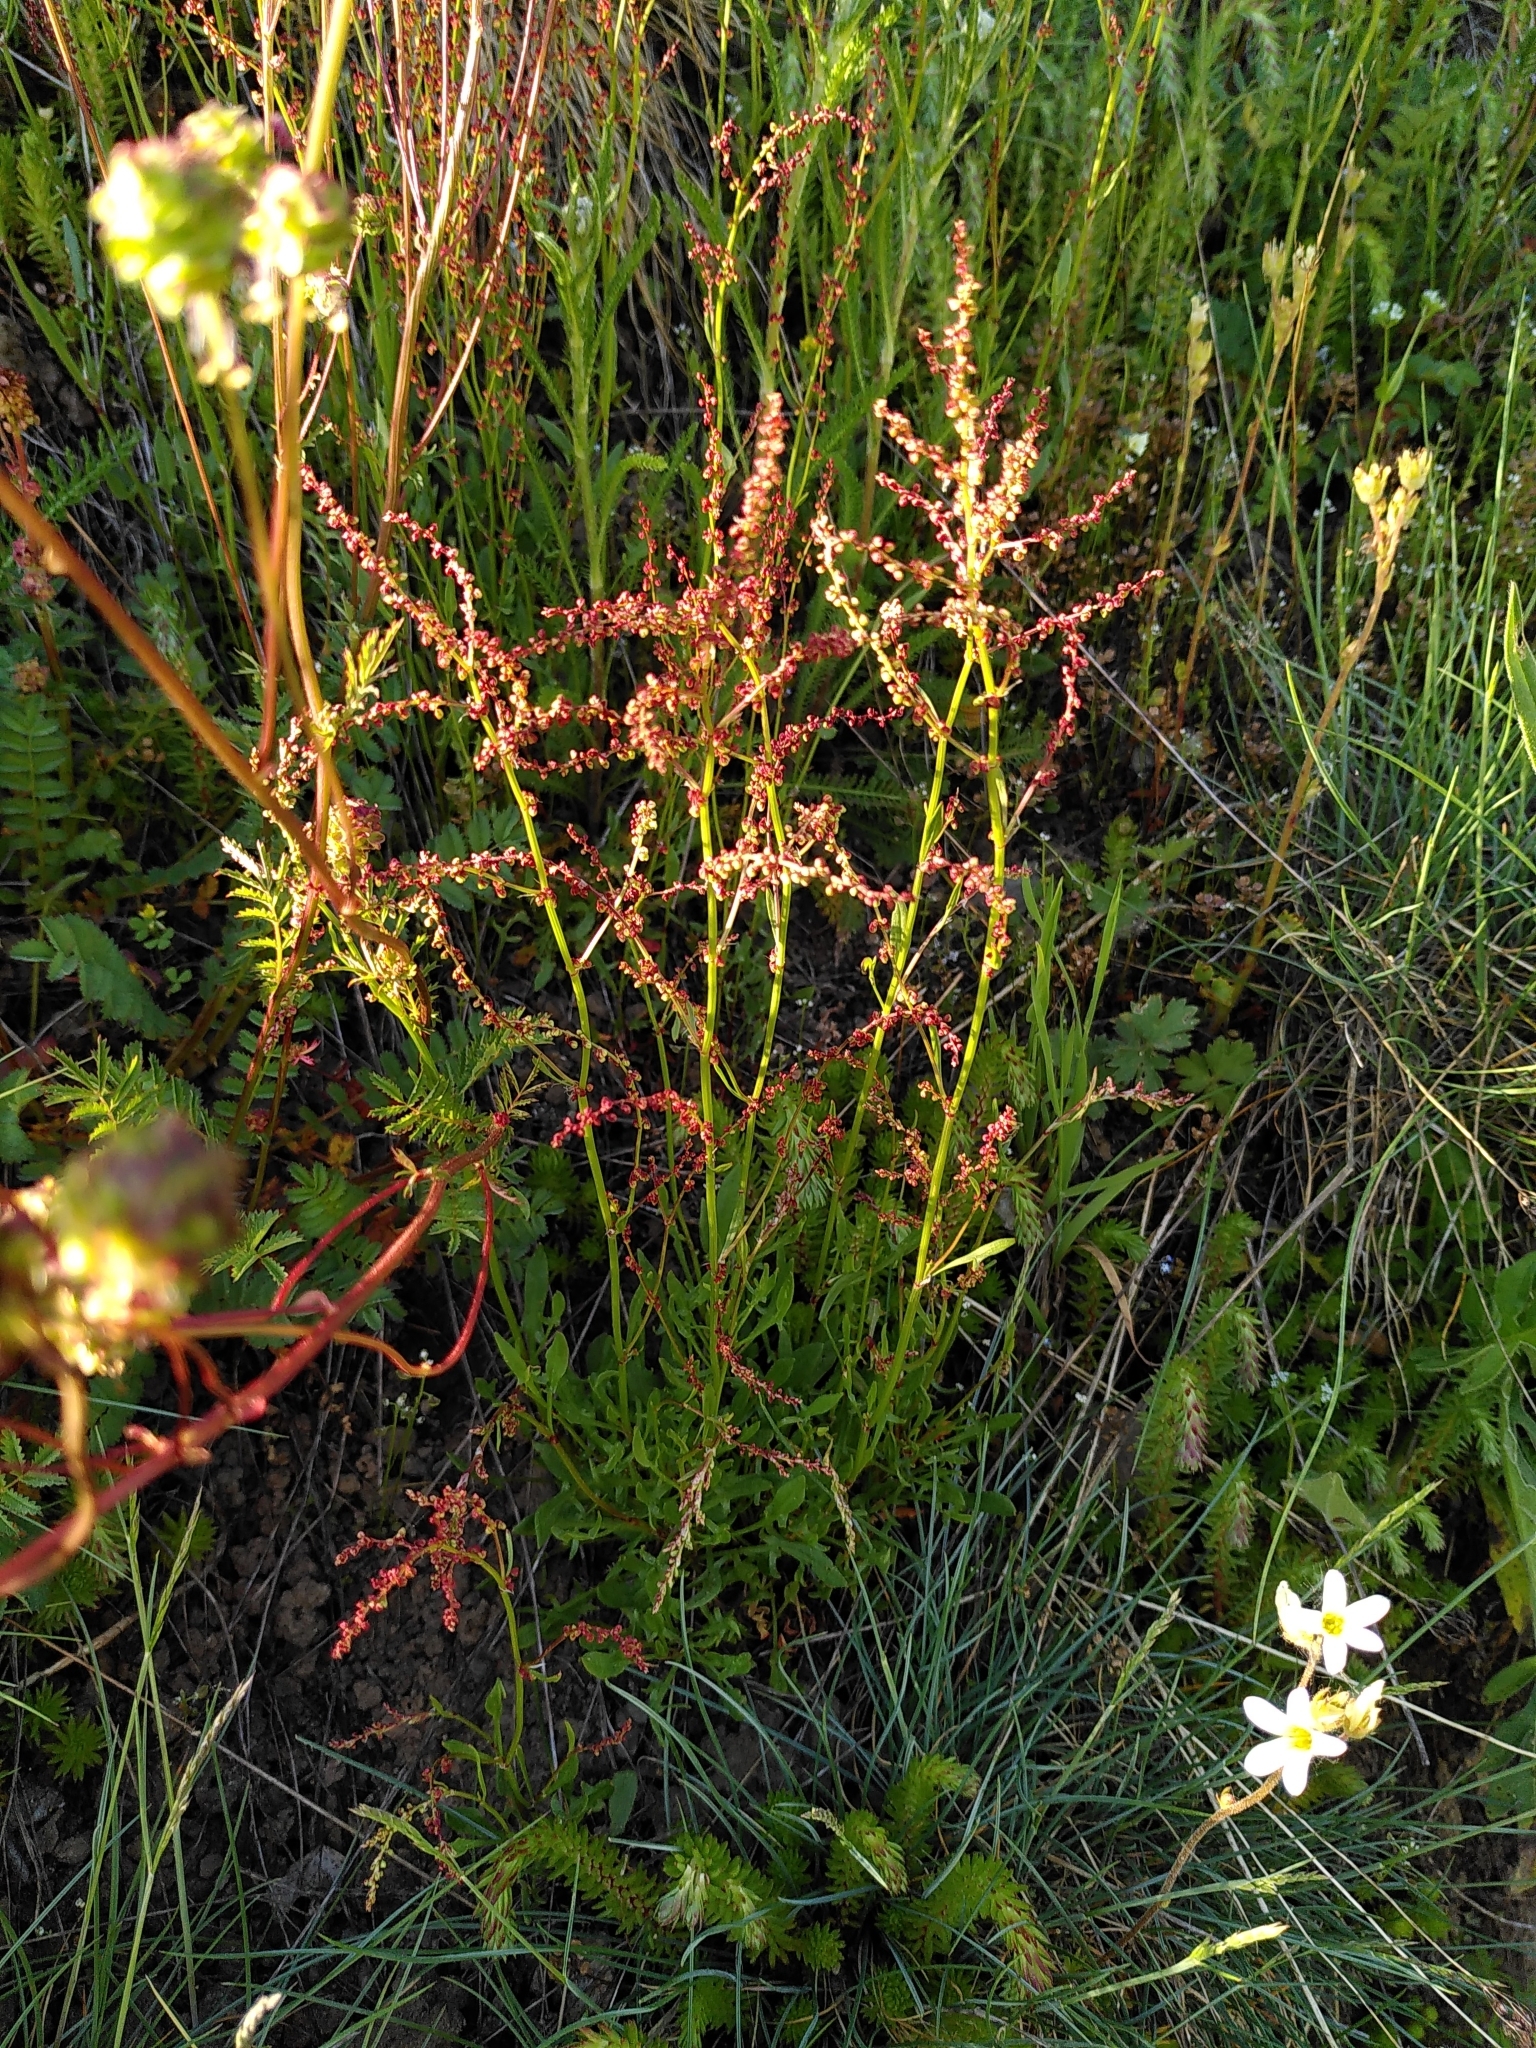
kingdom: Plantae
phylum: Tracheophyta
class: Magnoliopsida
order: Caryophyllales
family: Polygonaceae
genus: Rumex
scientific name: Rumex acetosella
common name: Common sheep sorrel
